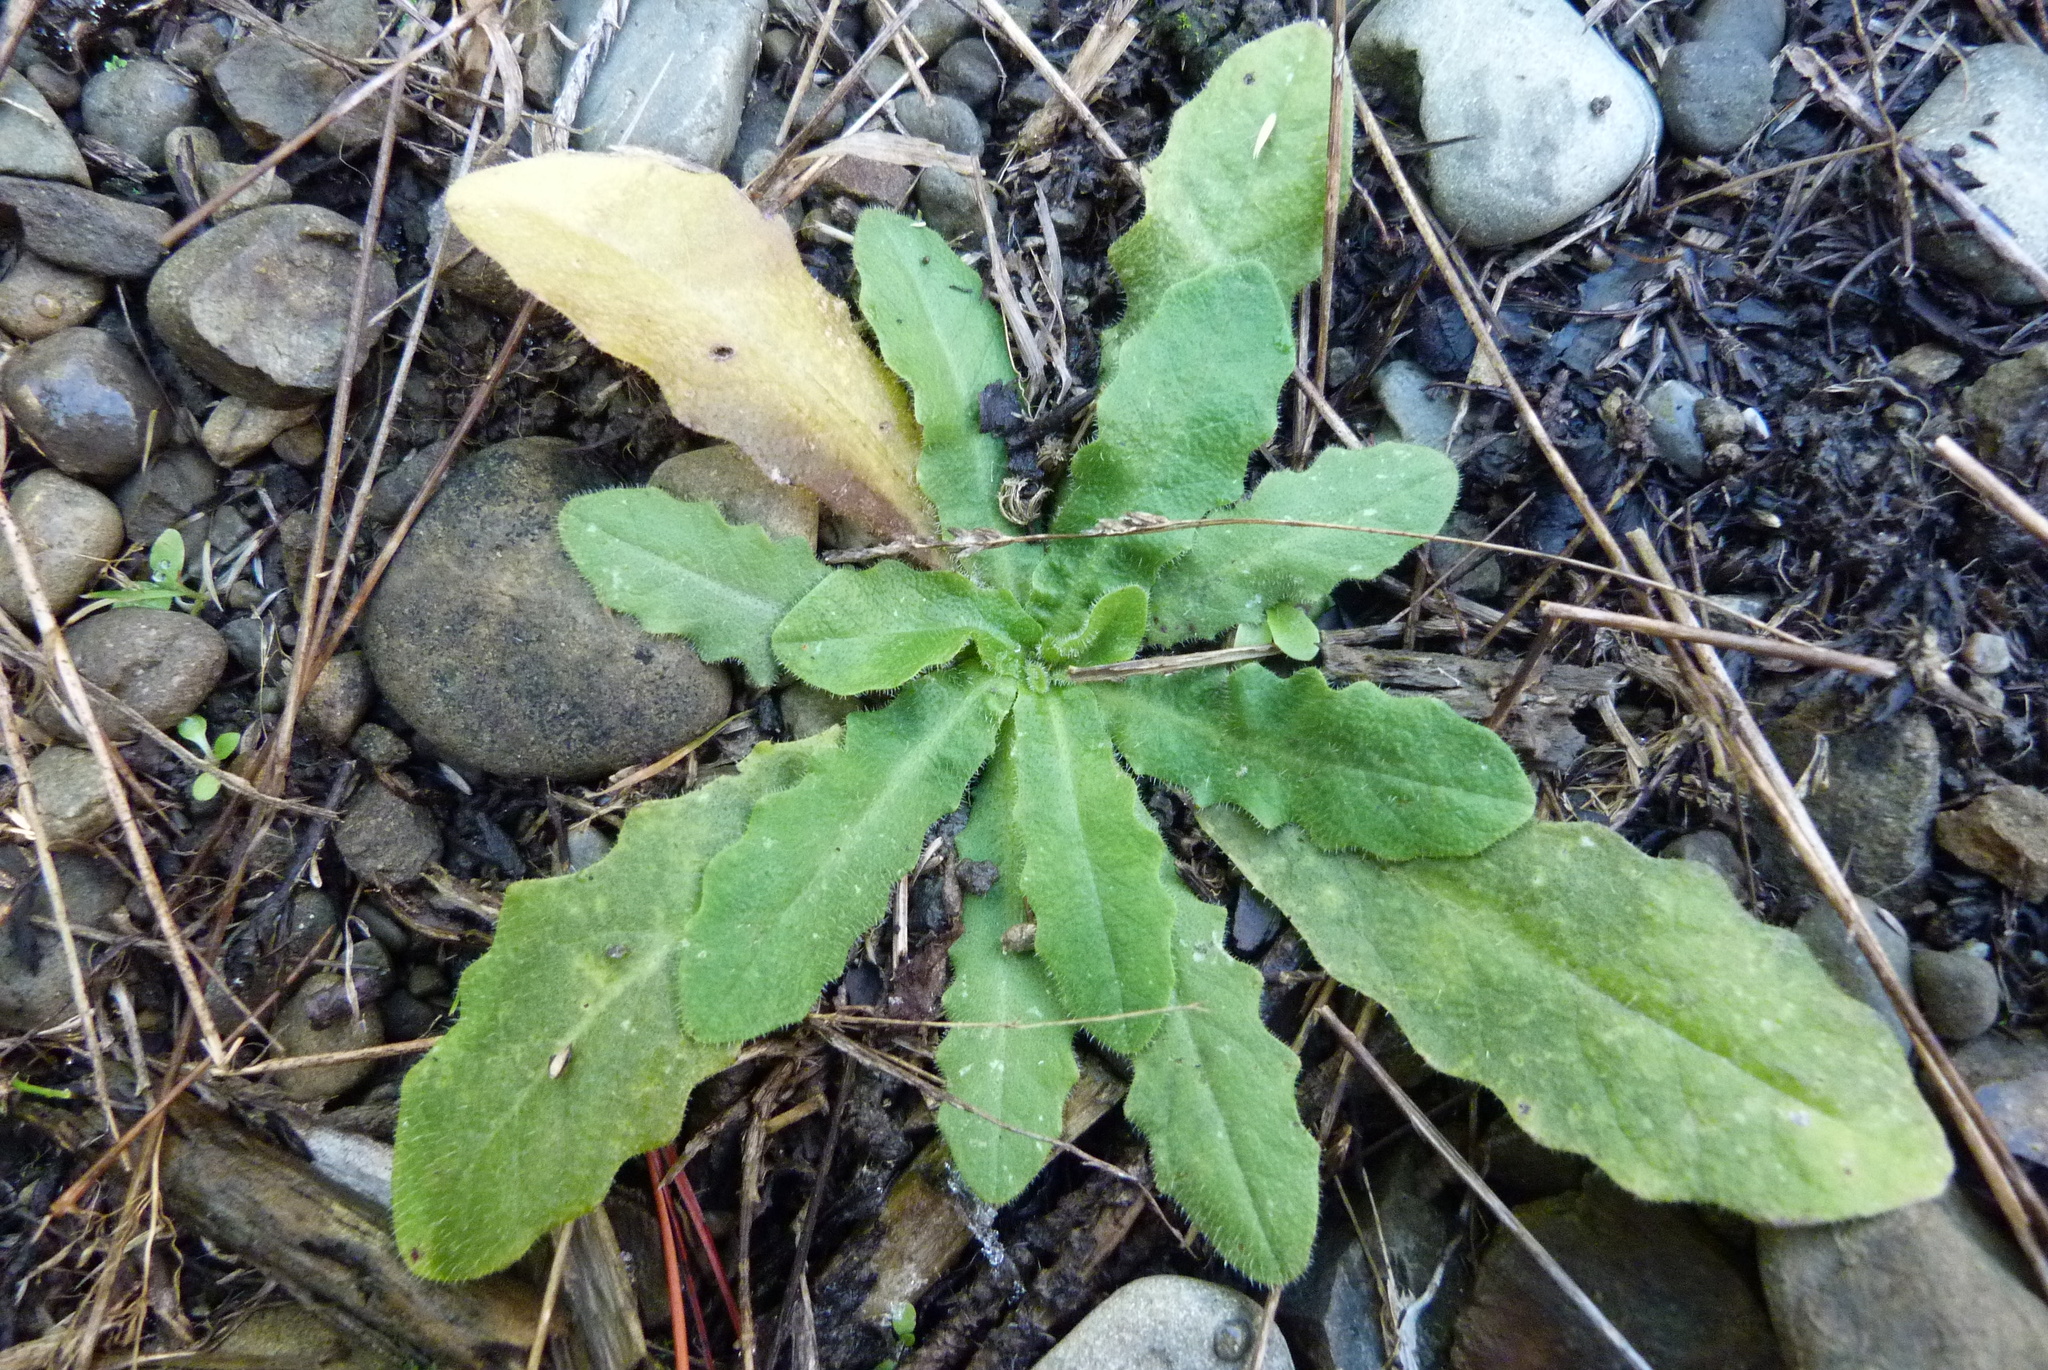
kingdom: Plantae
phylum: Tracheophyta
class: Magnoliopsida
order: Asterales
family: Asteraceae
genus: Hypochaeris
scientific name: Hypochaeris radicata
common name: Flatweed
